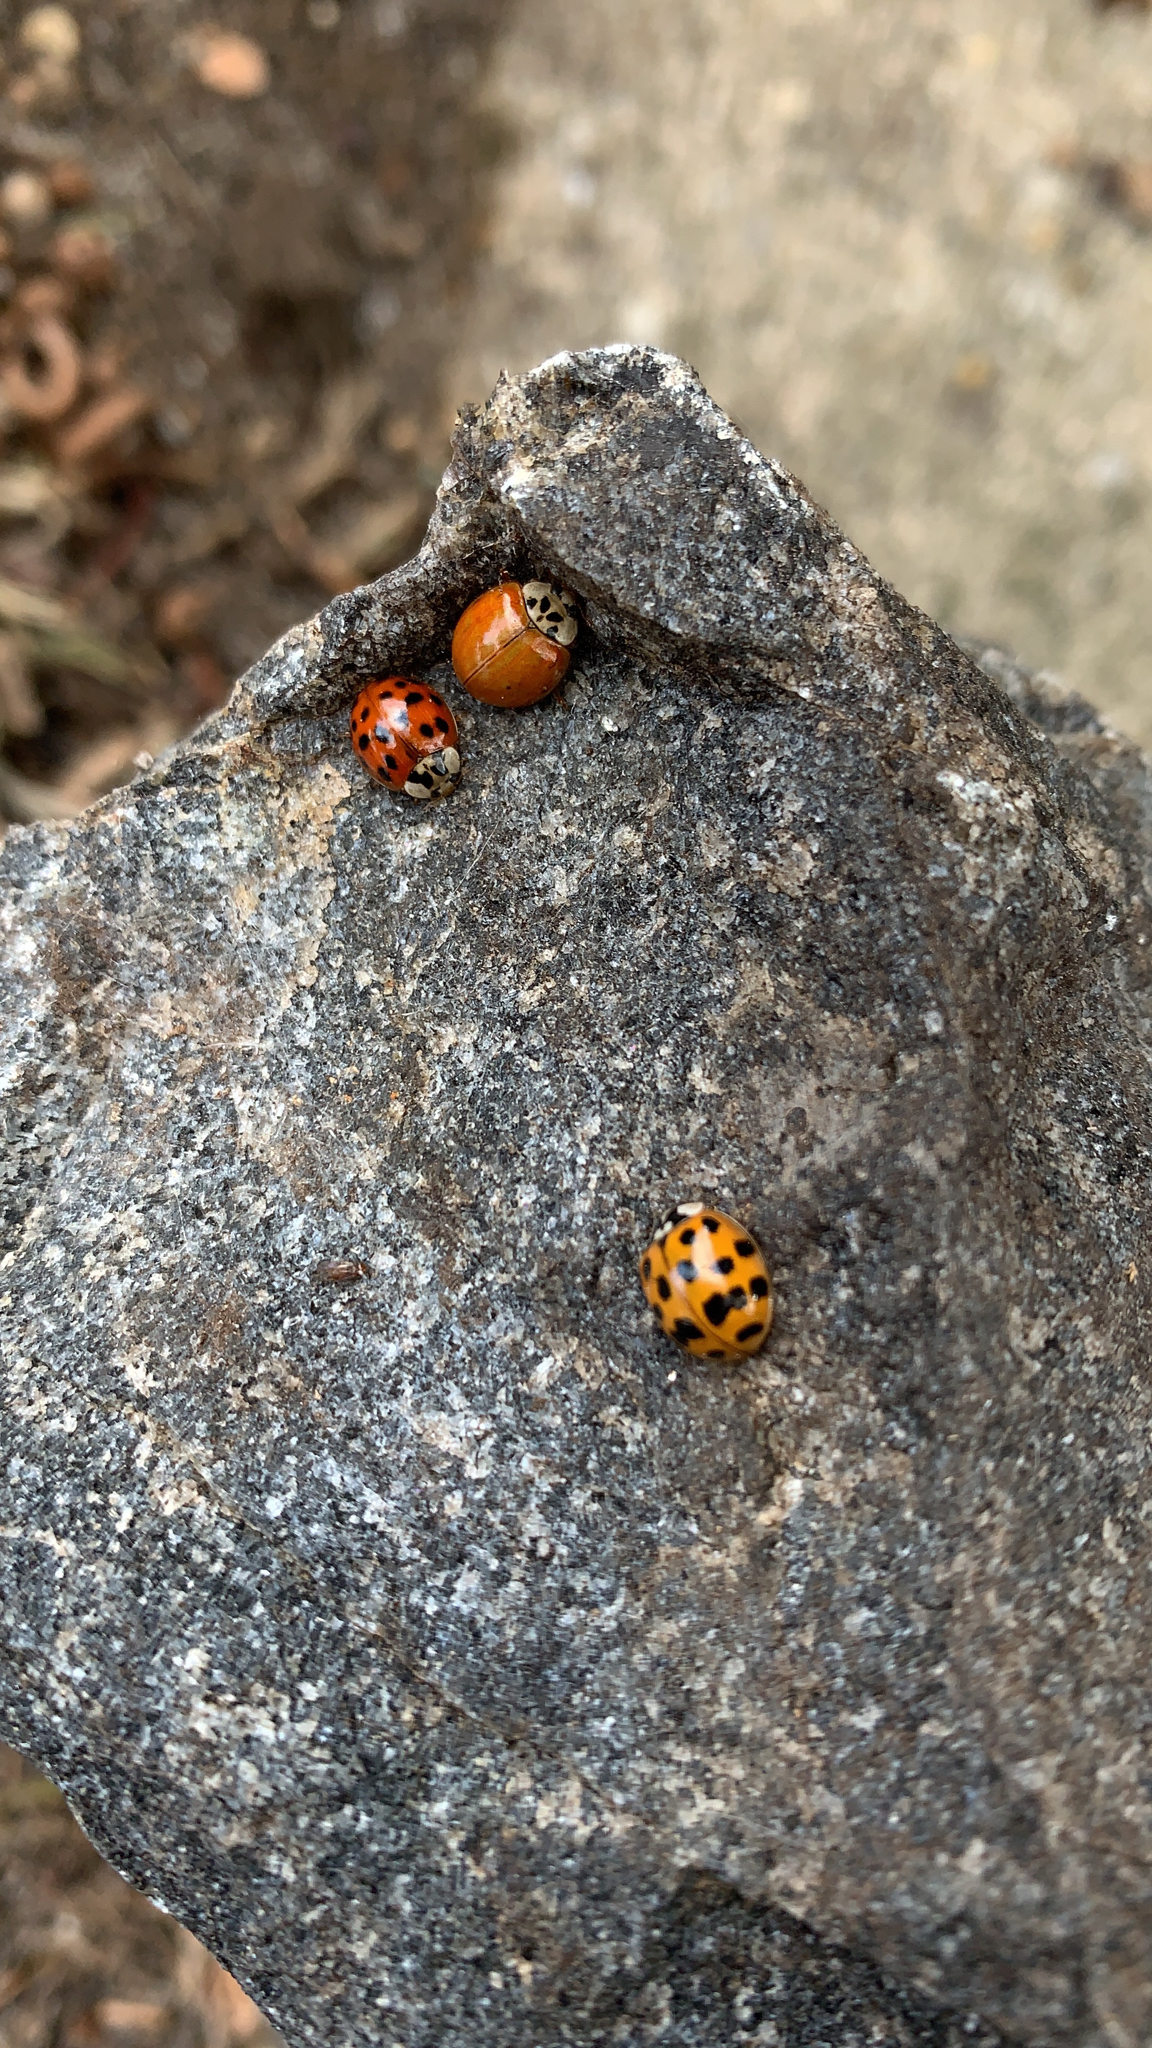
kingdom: Animalia
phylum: Arthropoda
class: Insecta
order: Coleoptera
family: Coccinellidae
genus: Harmonia
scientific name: Harmonia axyridis
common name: Harlequin ladybird
